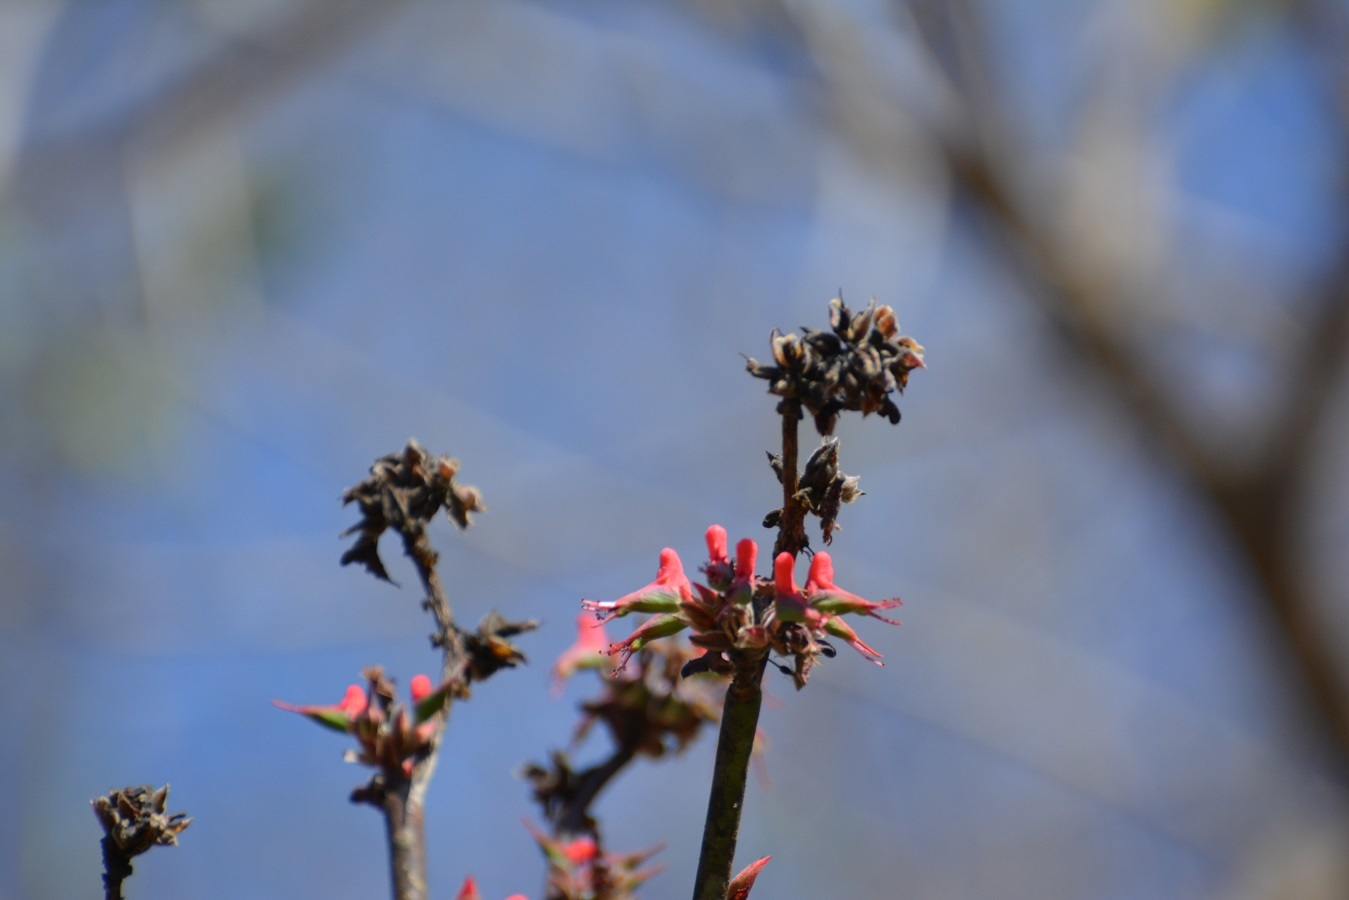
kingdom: Plantae
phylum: Tracheophyta
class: Magnoliopsida
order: Malpighiales
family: Euphorbiaceae
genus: Euphorbia
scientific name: Euphorbia calcarata
